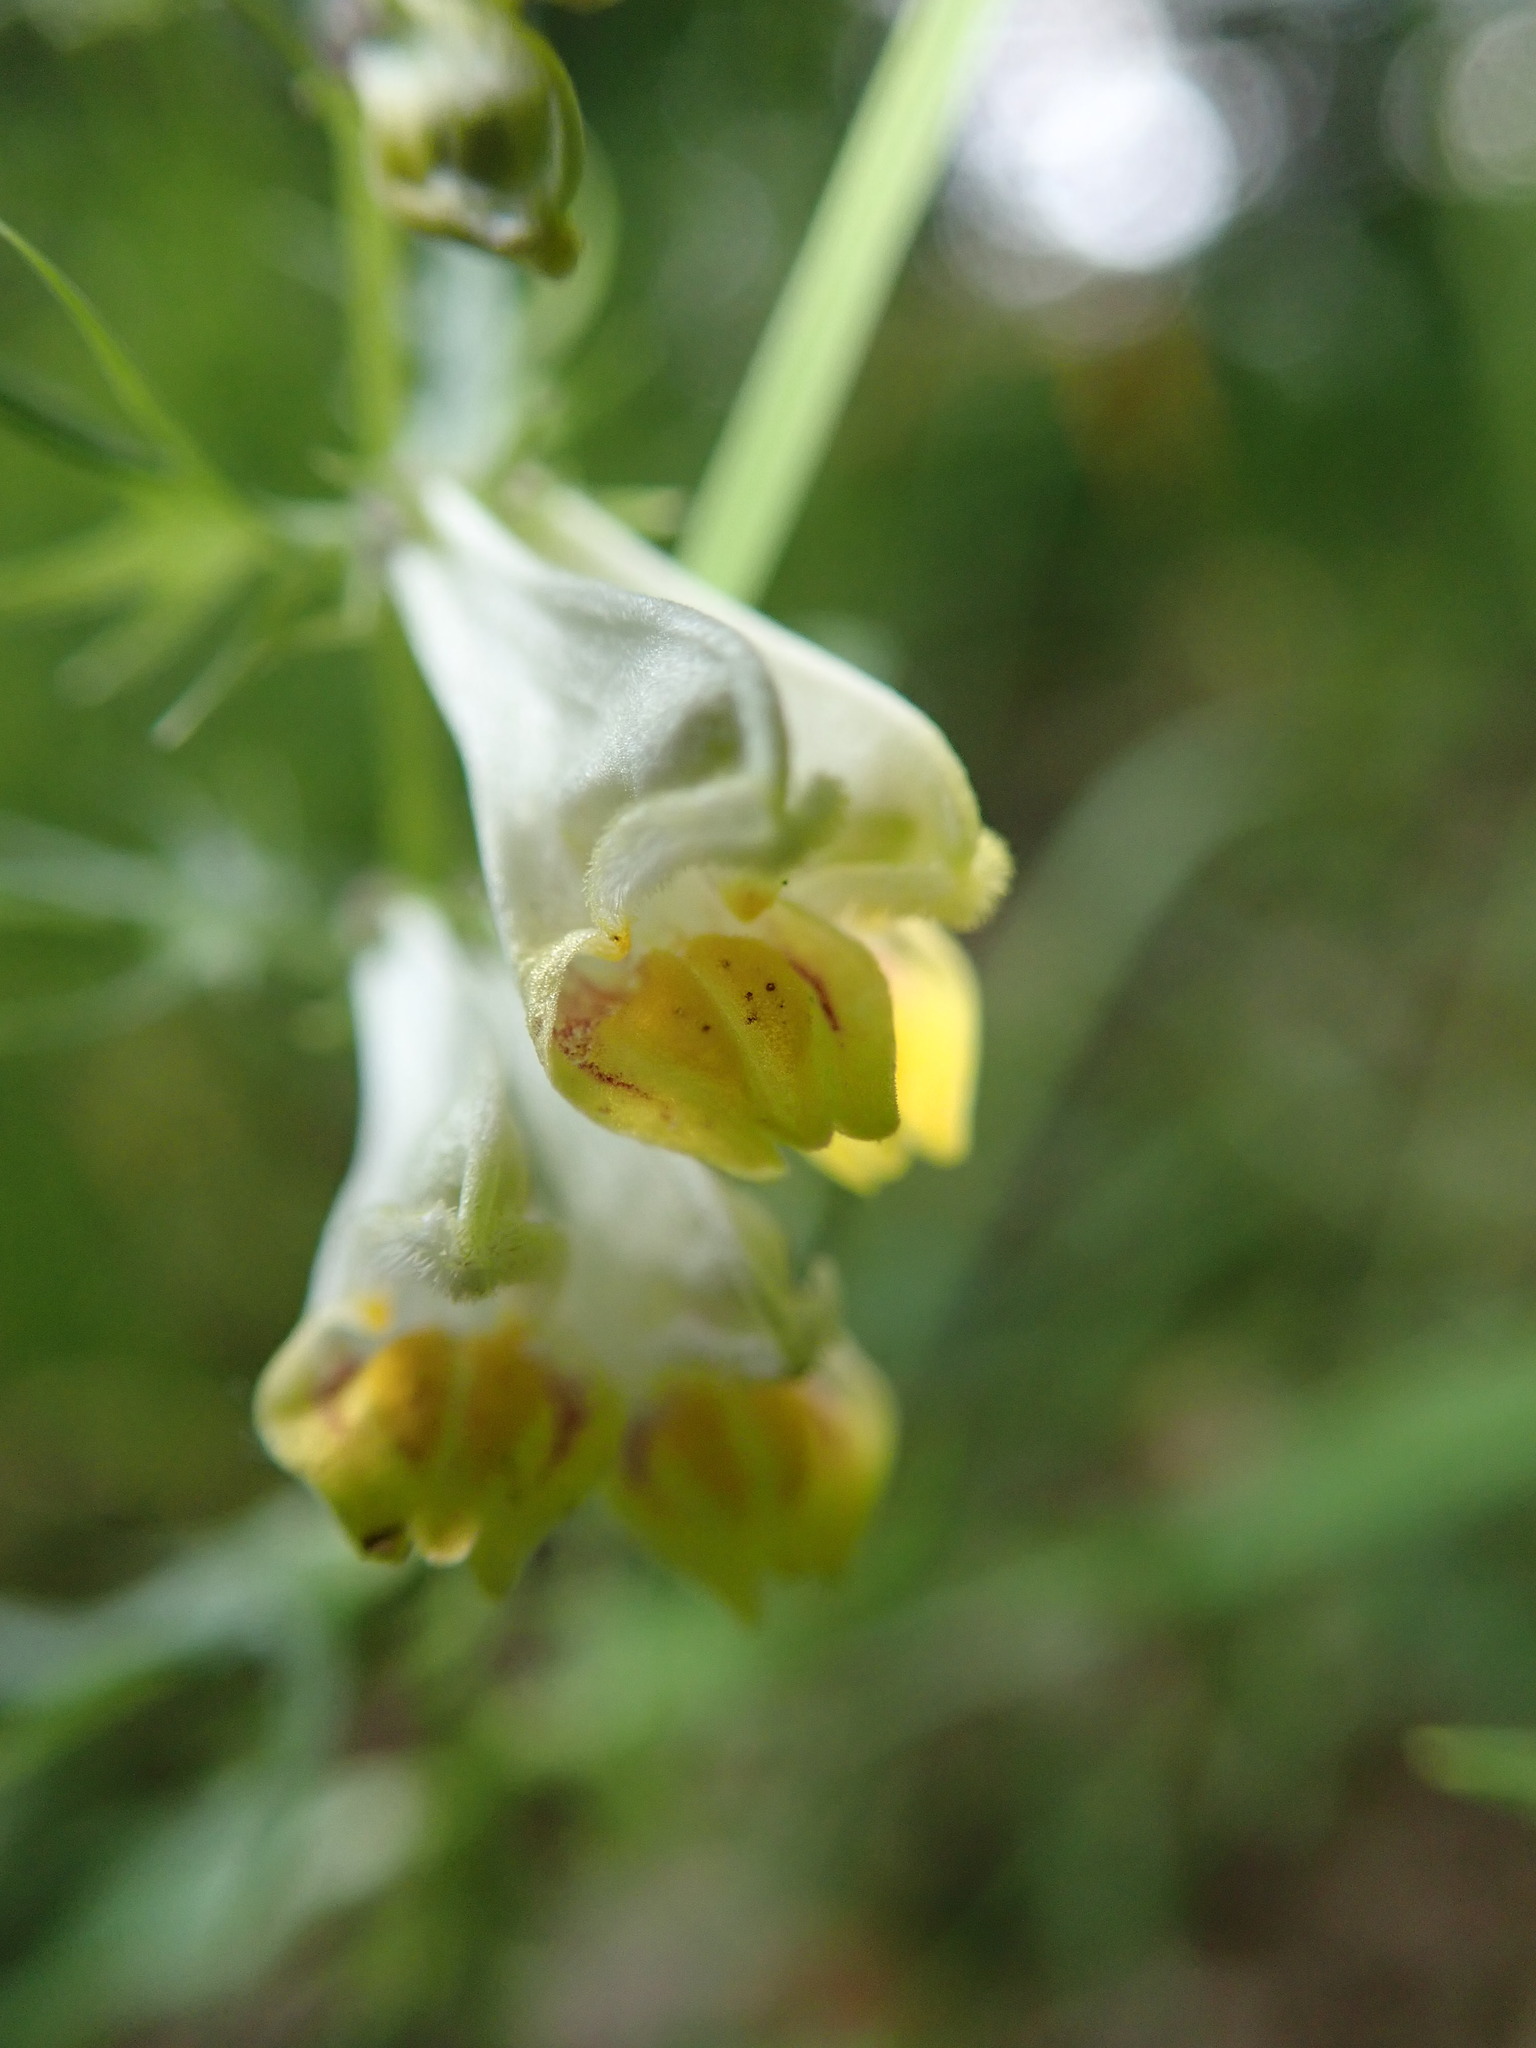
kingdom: Plantae
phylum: Tracheophyta
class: Magnoliopsida
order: Lamiales
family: Orobanchaceae
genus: Melampyrum
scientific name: Melampyrum pratense
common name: Common cow-wheat
